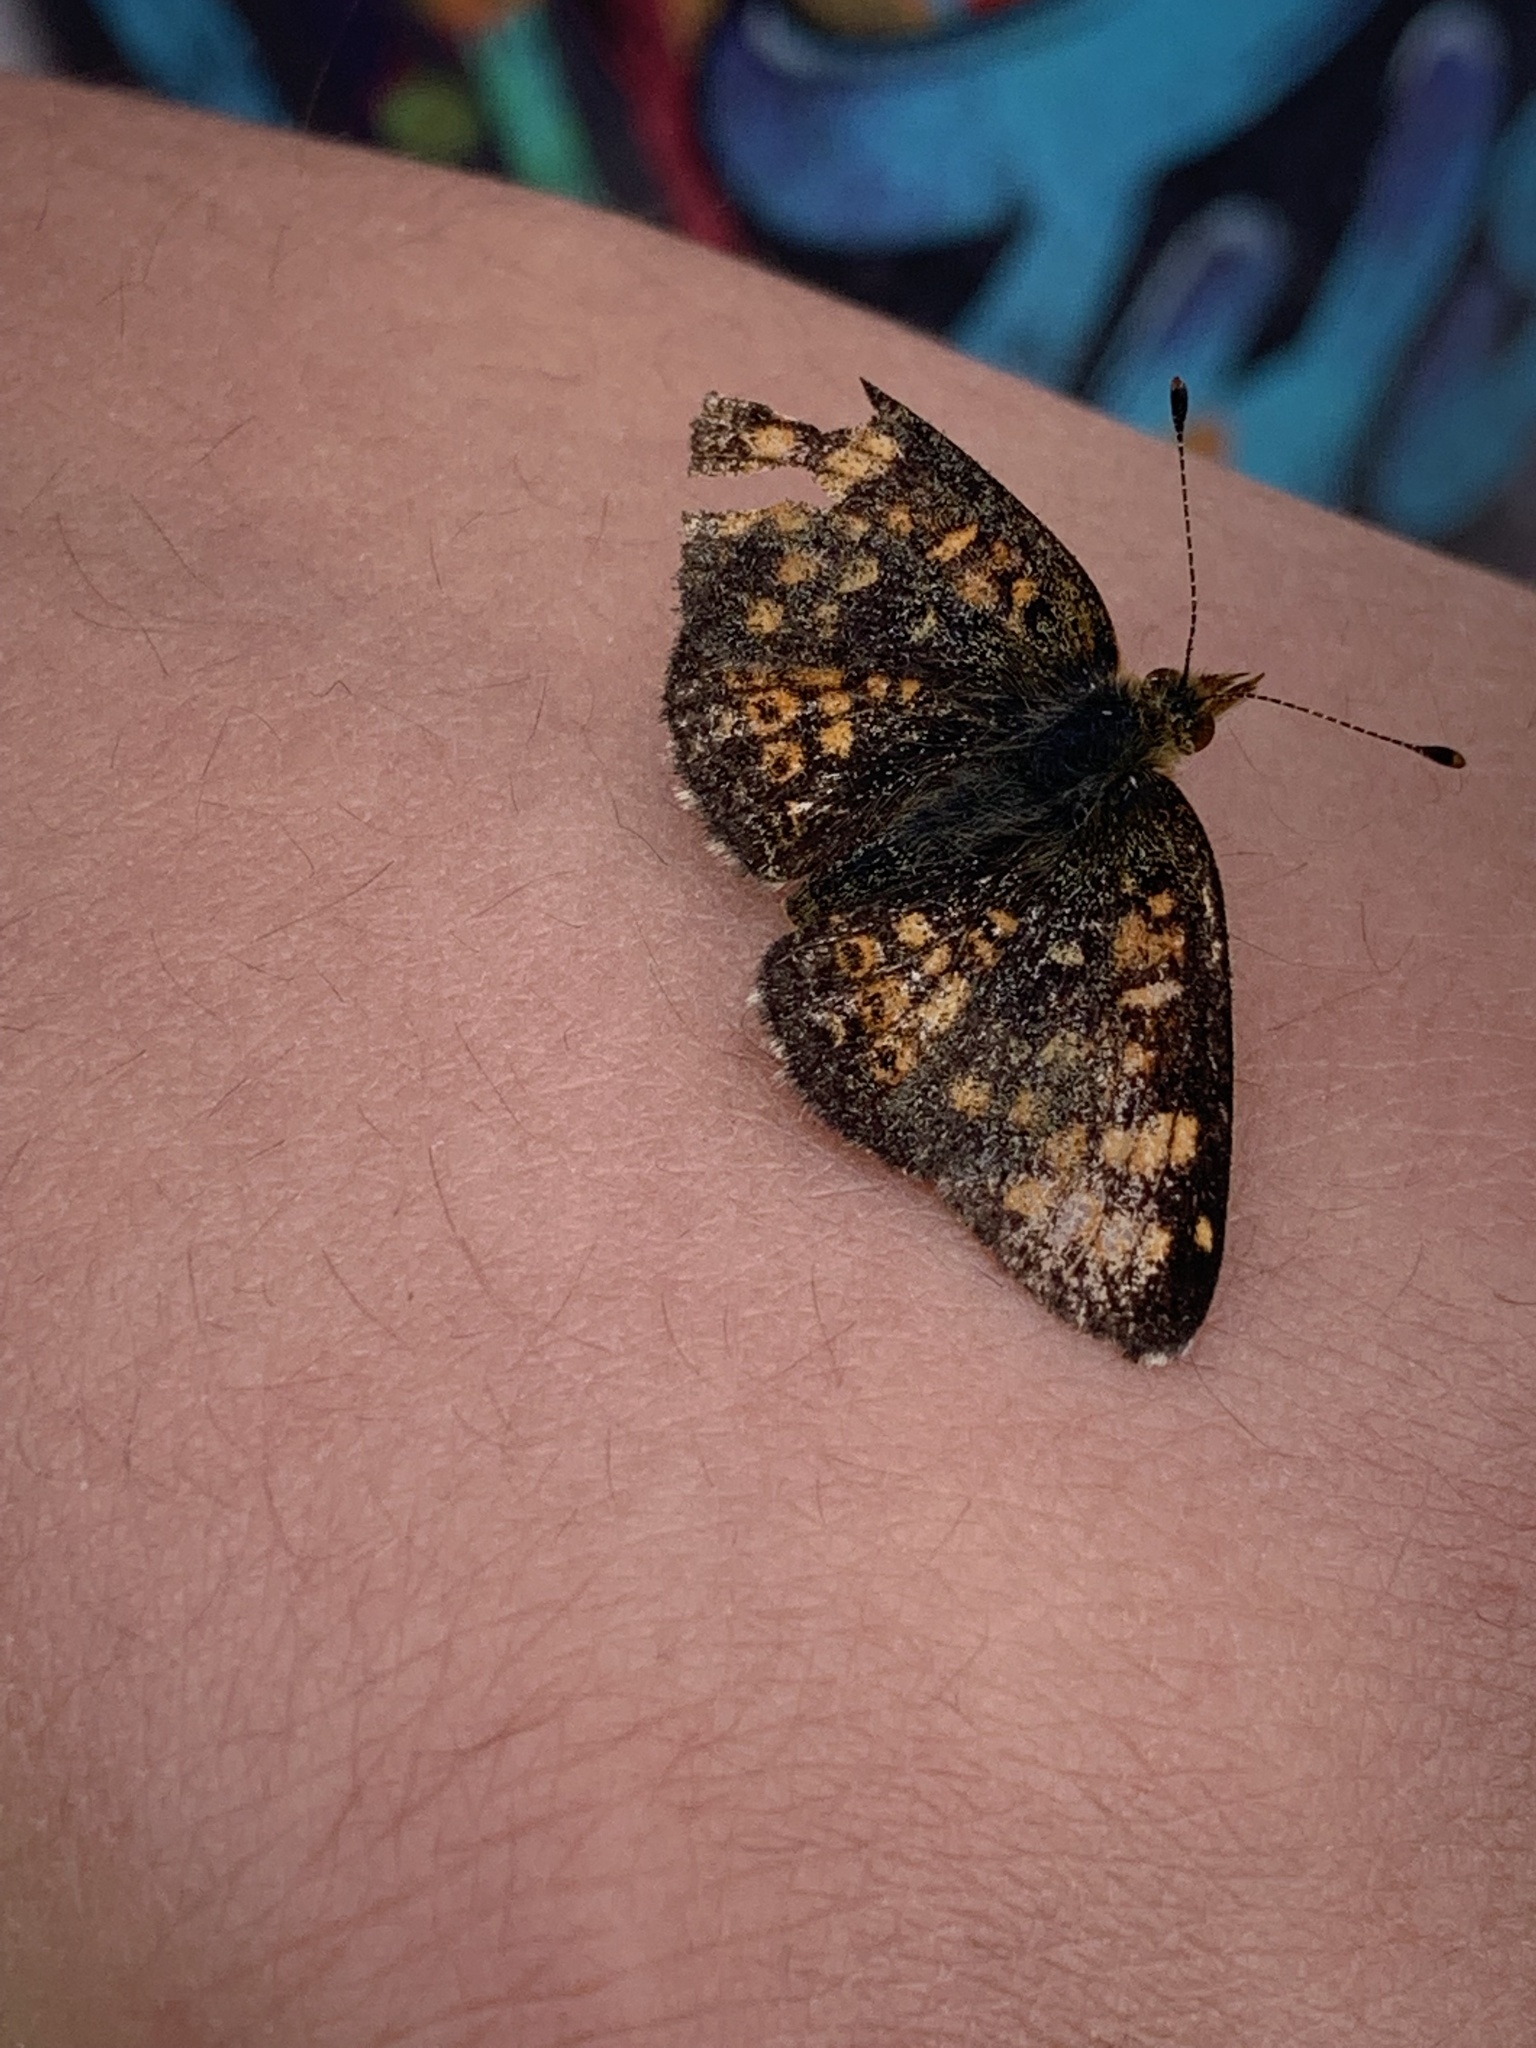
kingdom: Animalia
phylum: Arthropoda
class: Insecta
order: Lepidoptera
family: Nymphalidae
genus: Phyciodes
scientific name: Phyciodes tharos
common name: Pearl crescent
